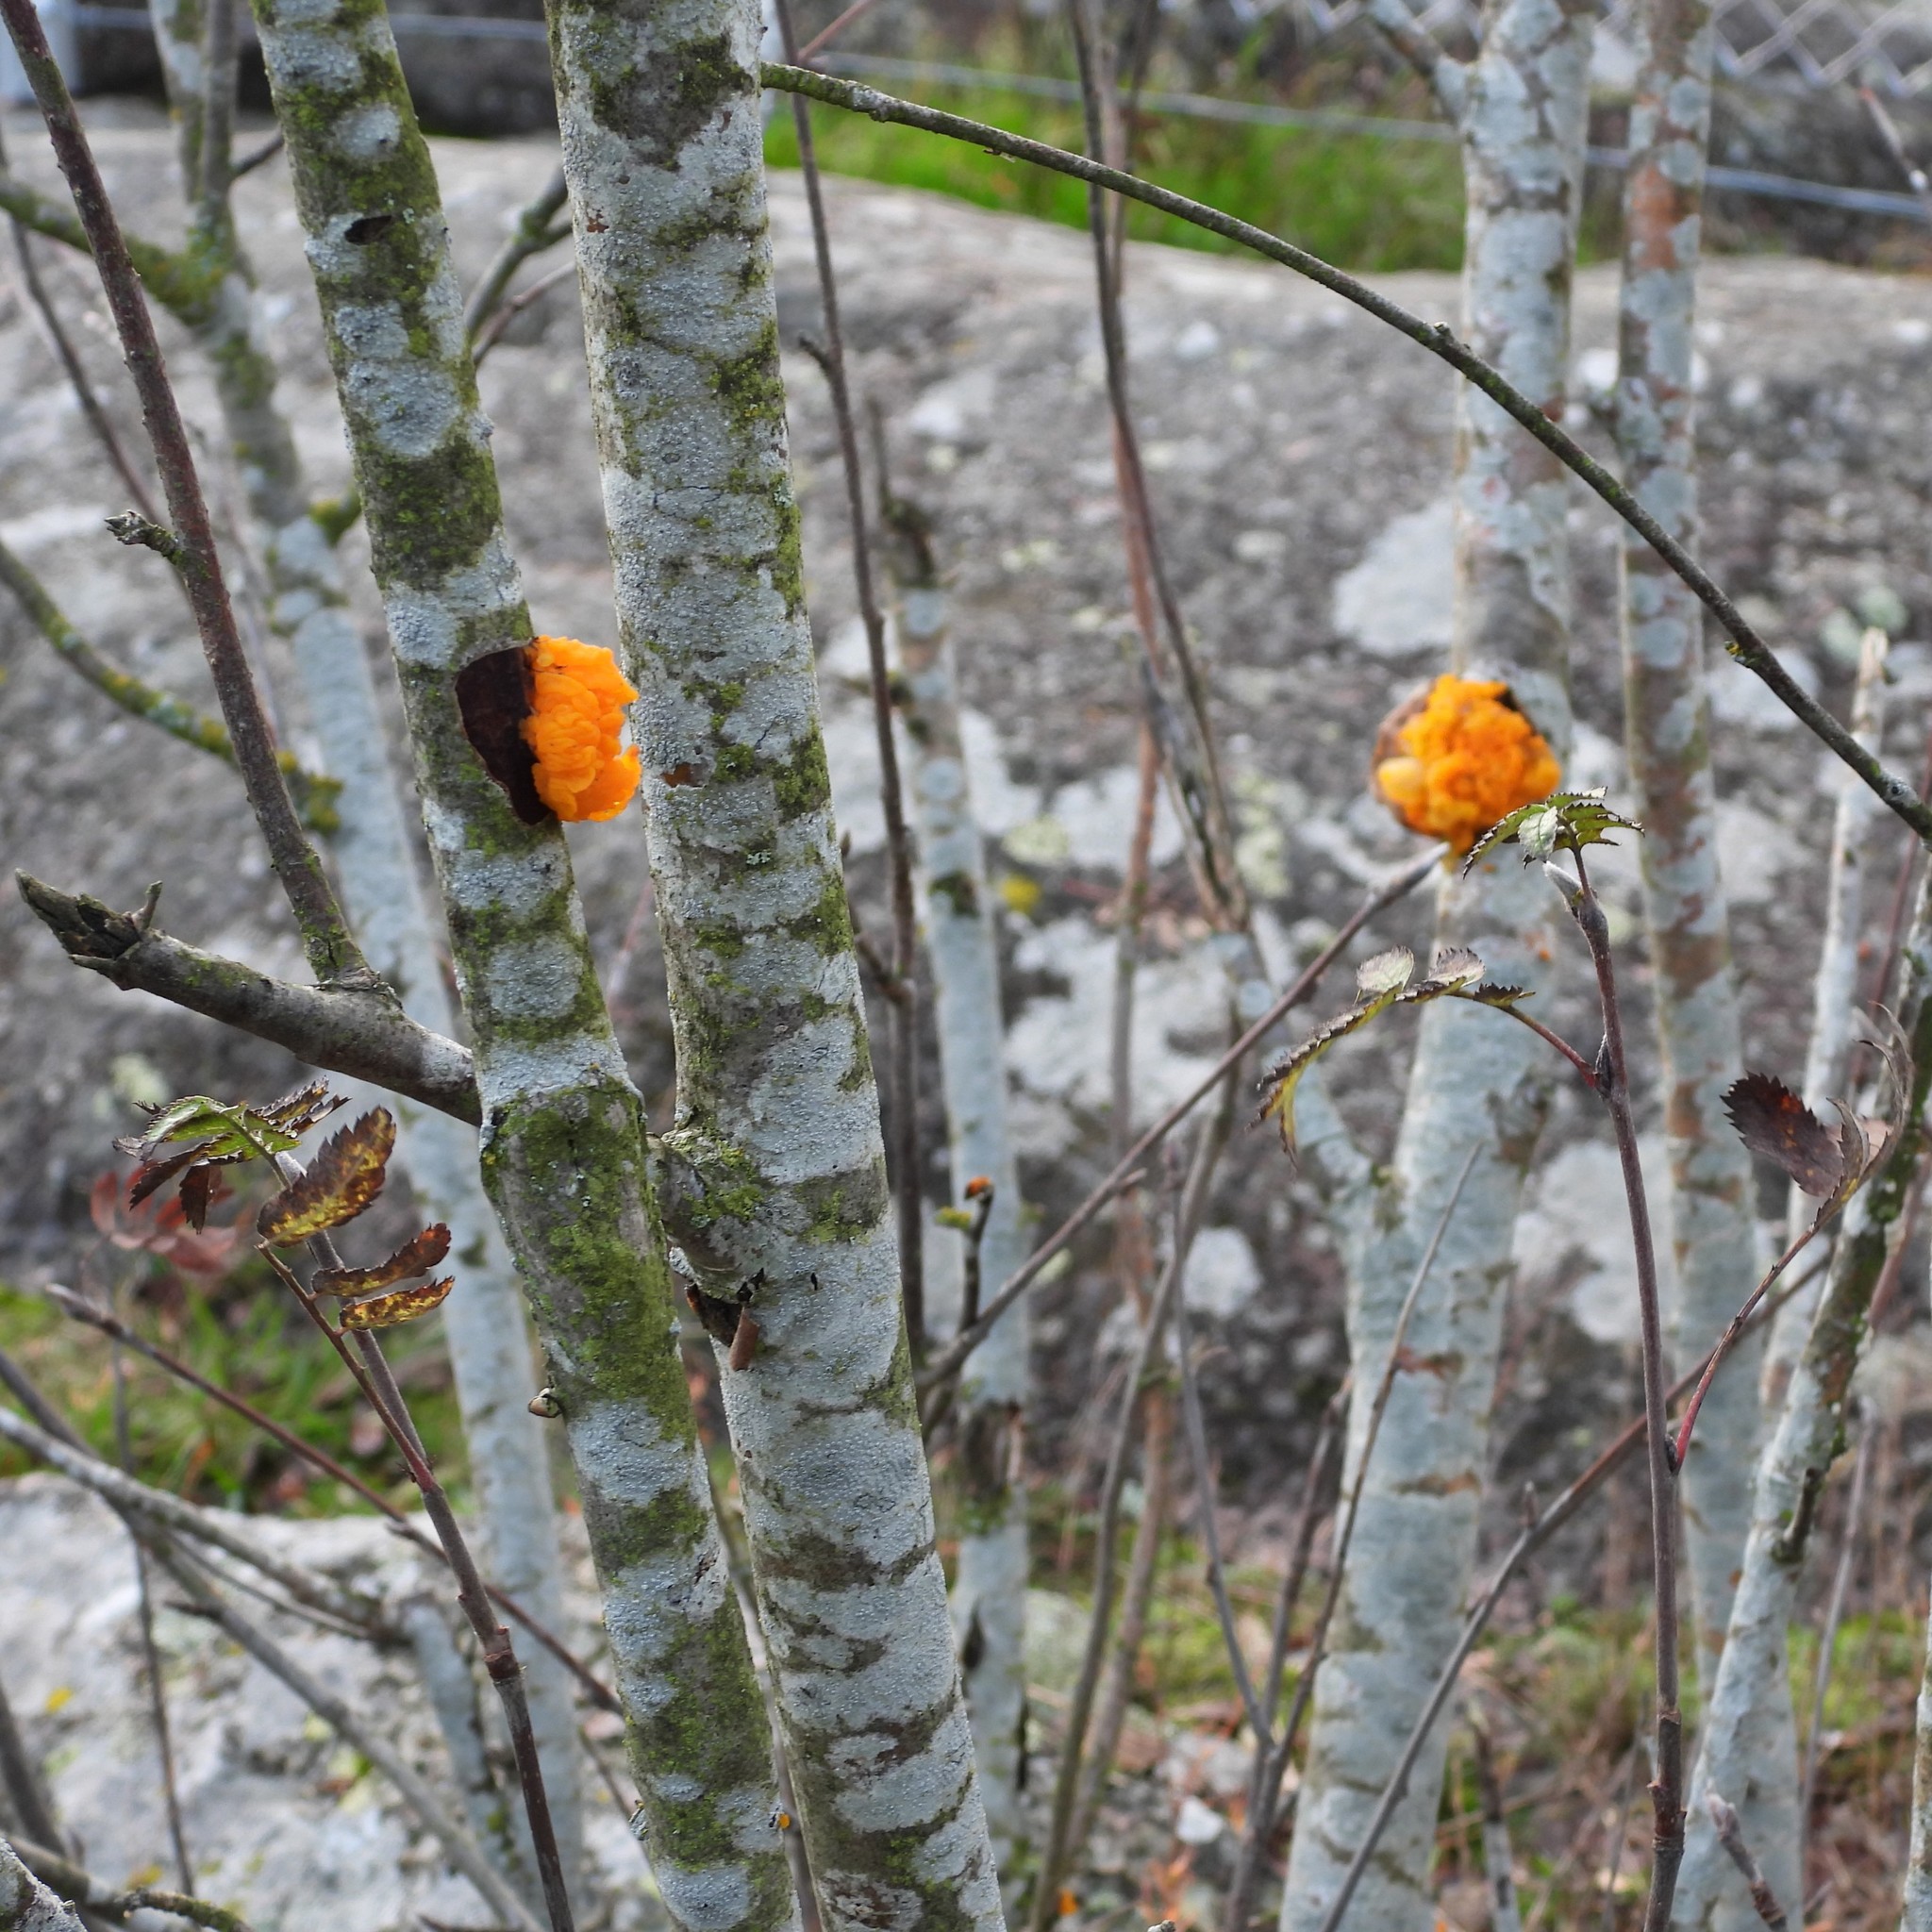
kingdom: Fungi
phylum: Basidiomycota
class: Tremellomycetes
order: Tremellales
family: Tremellaceae
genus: Tremella
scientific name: Tremella mesenterica
